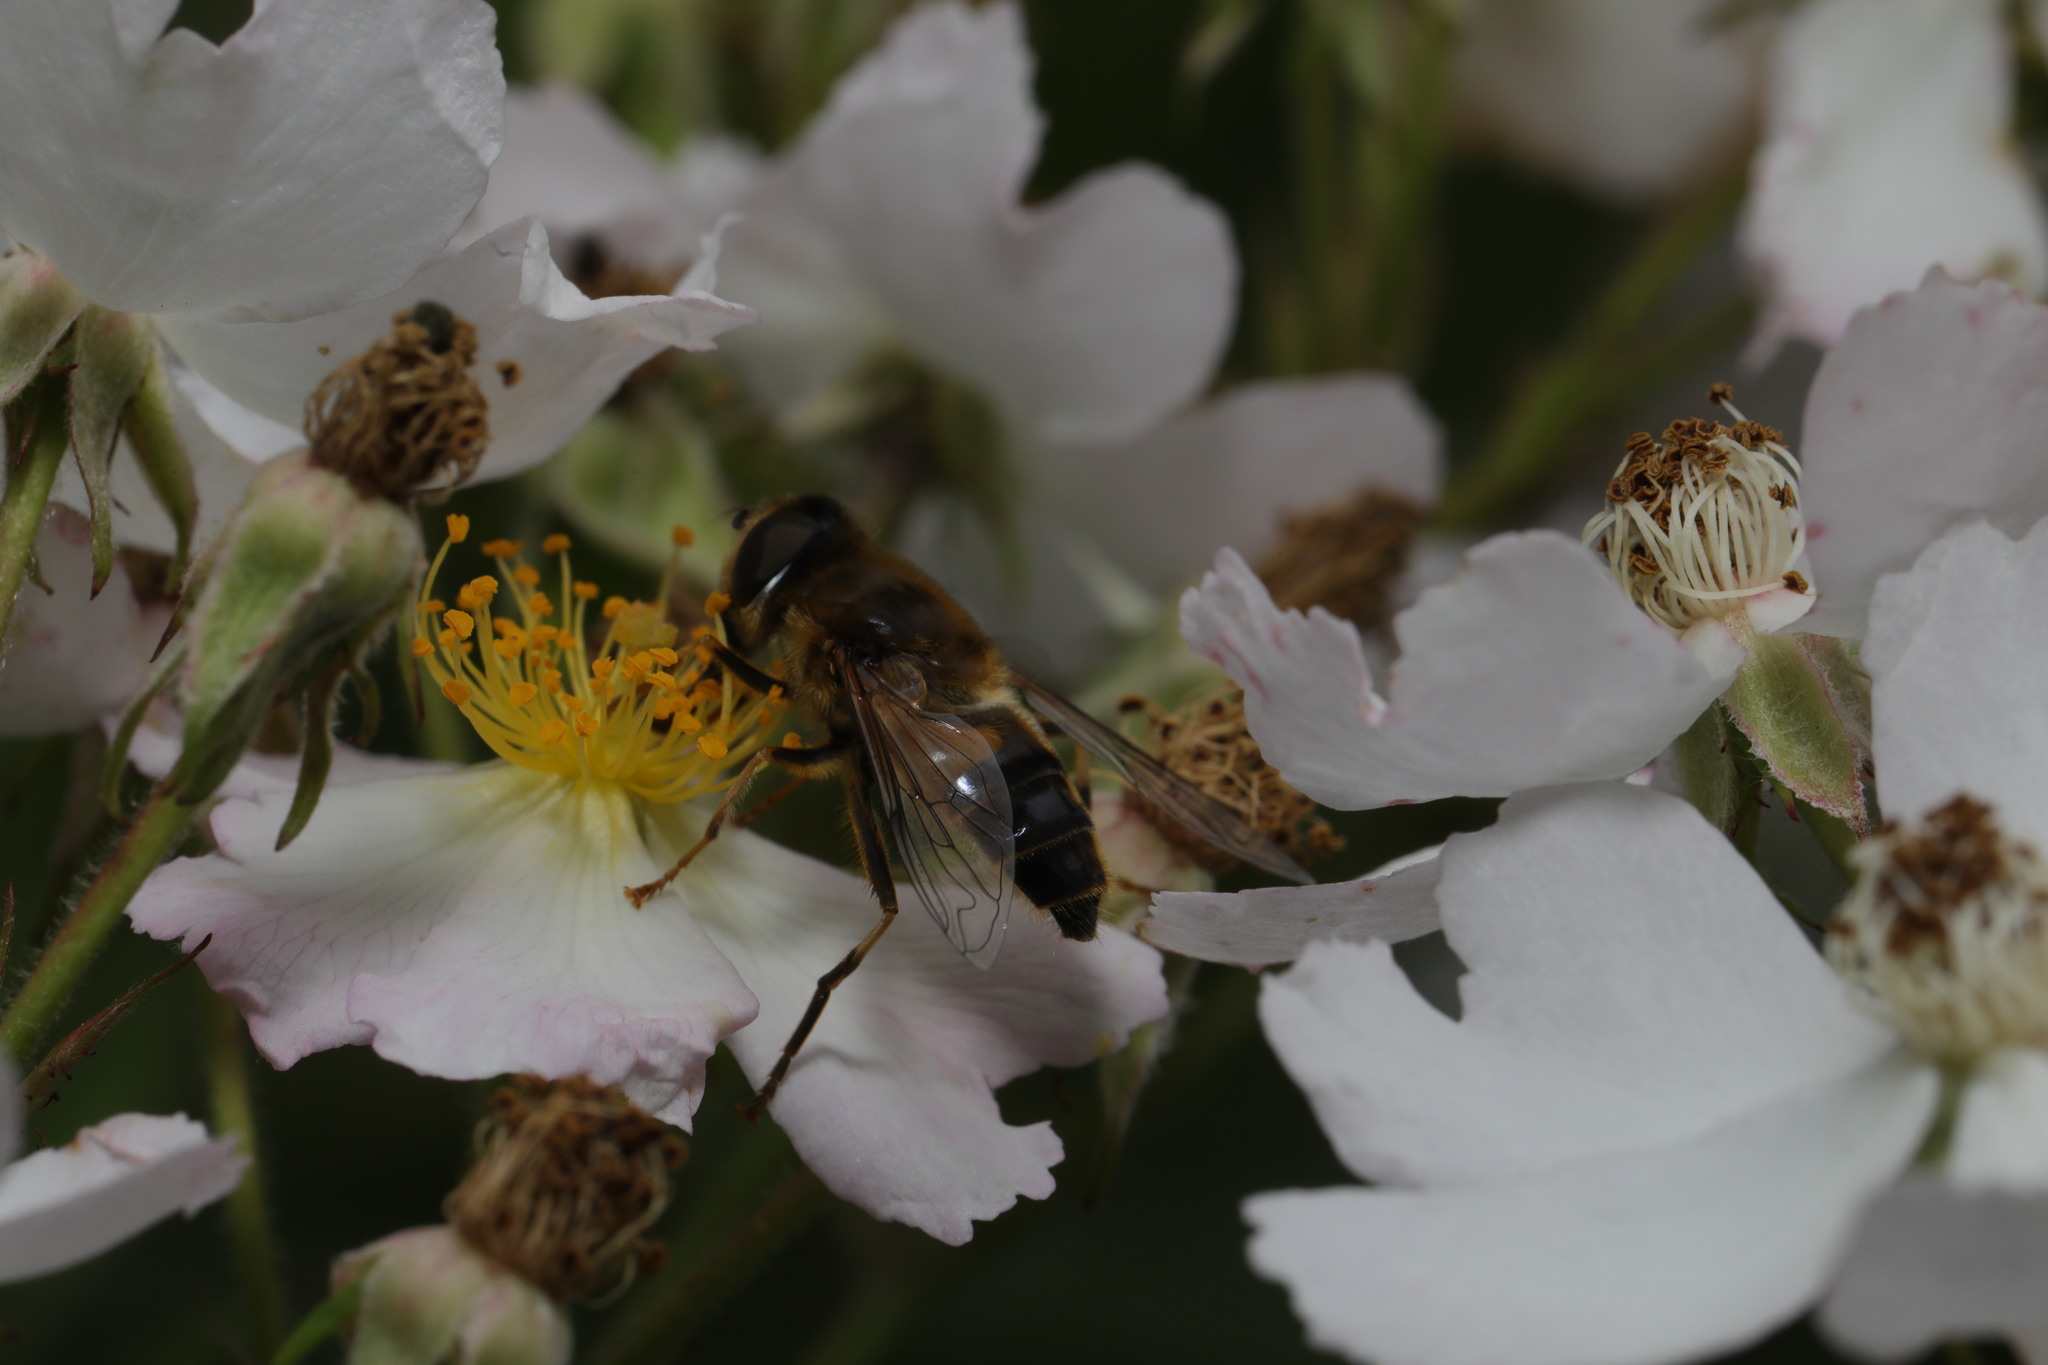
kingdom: Animalia
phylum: Arthropoda
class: Insecta
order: Diptera
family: Syrphidae
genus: Eristalis
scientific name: Eristalis pertinax
